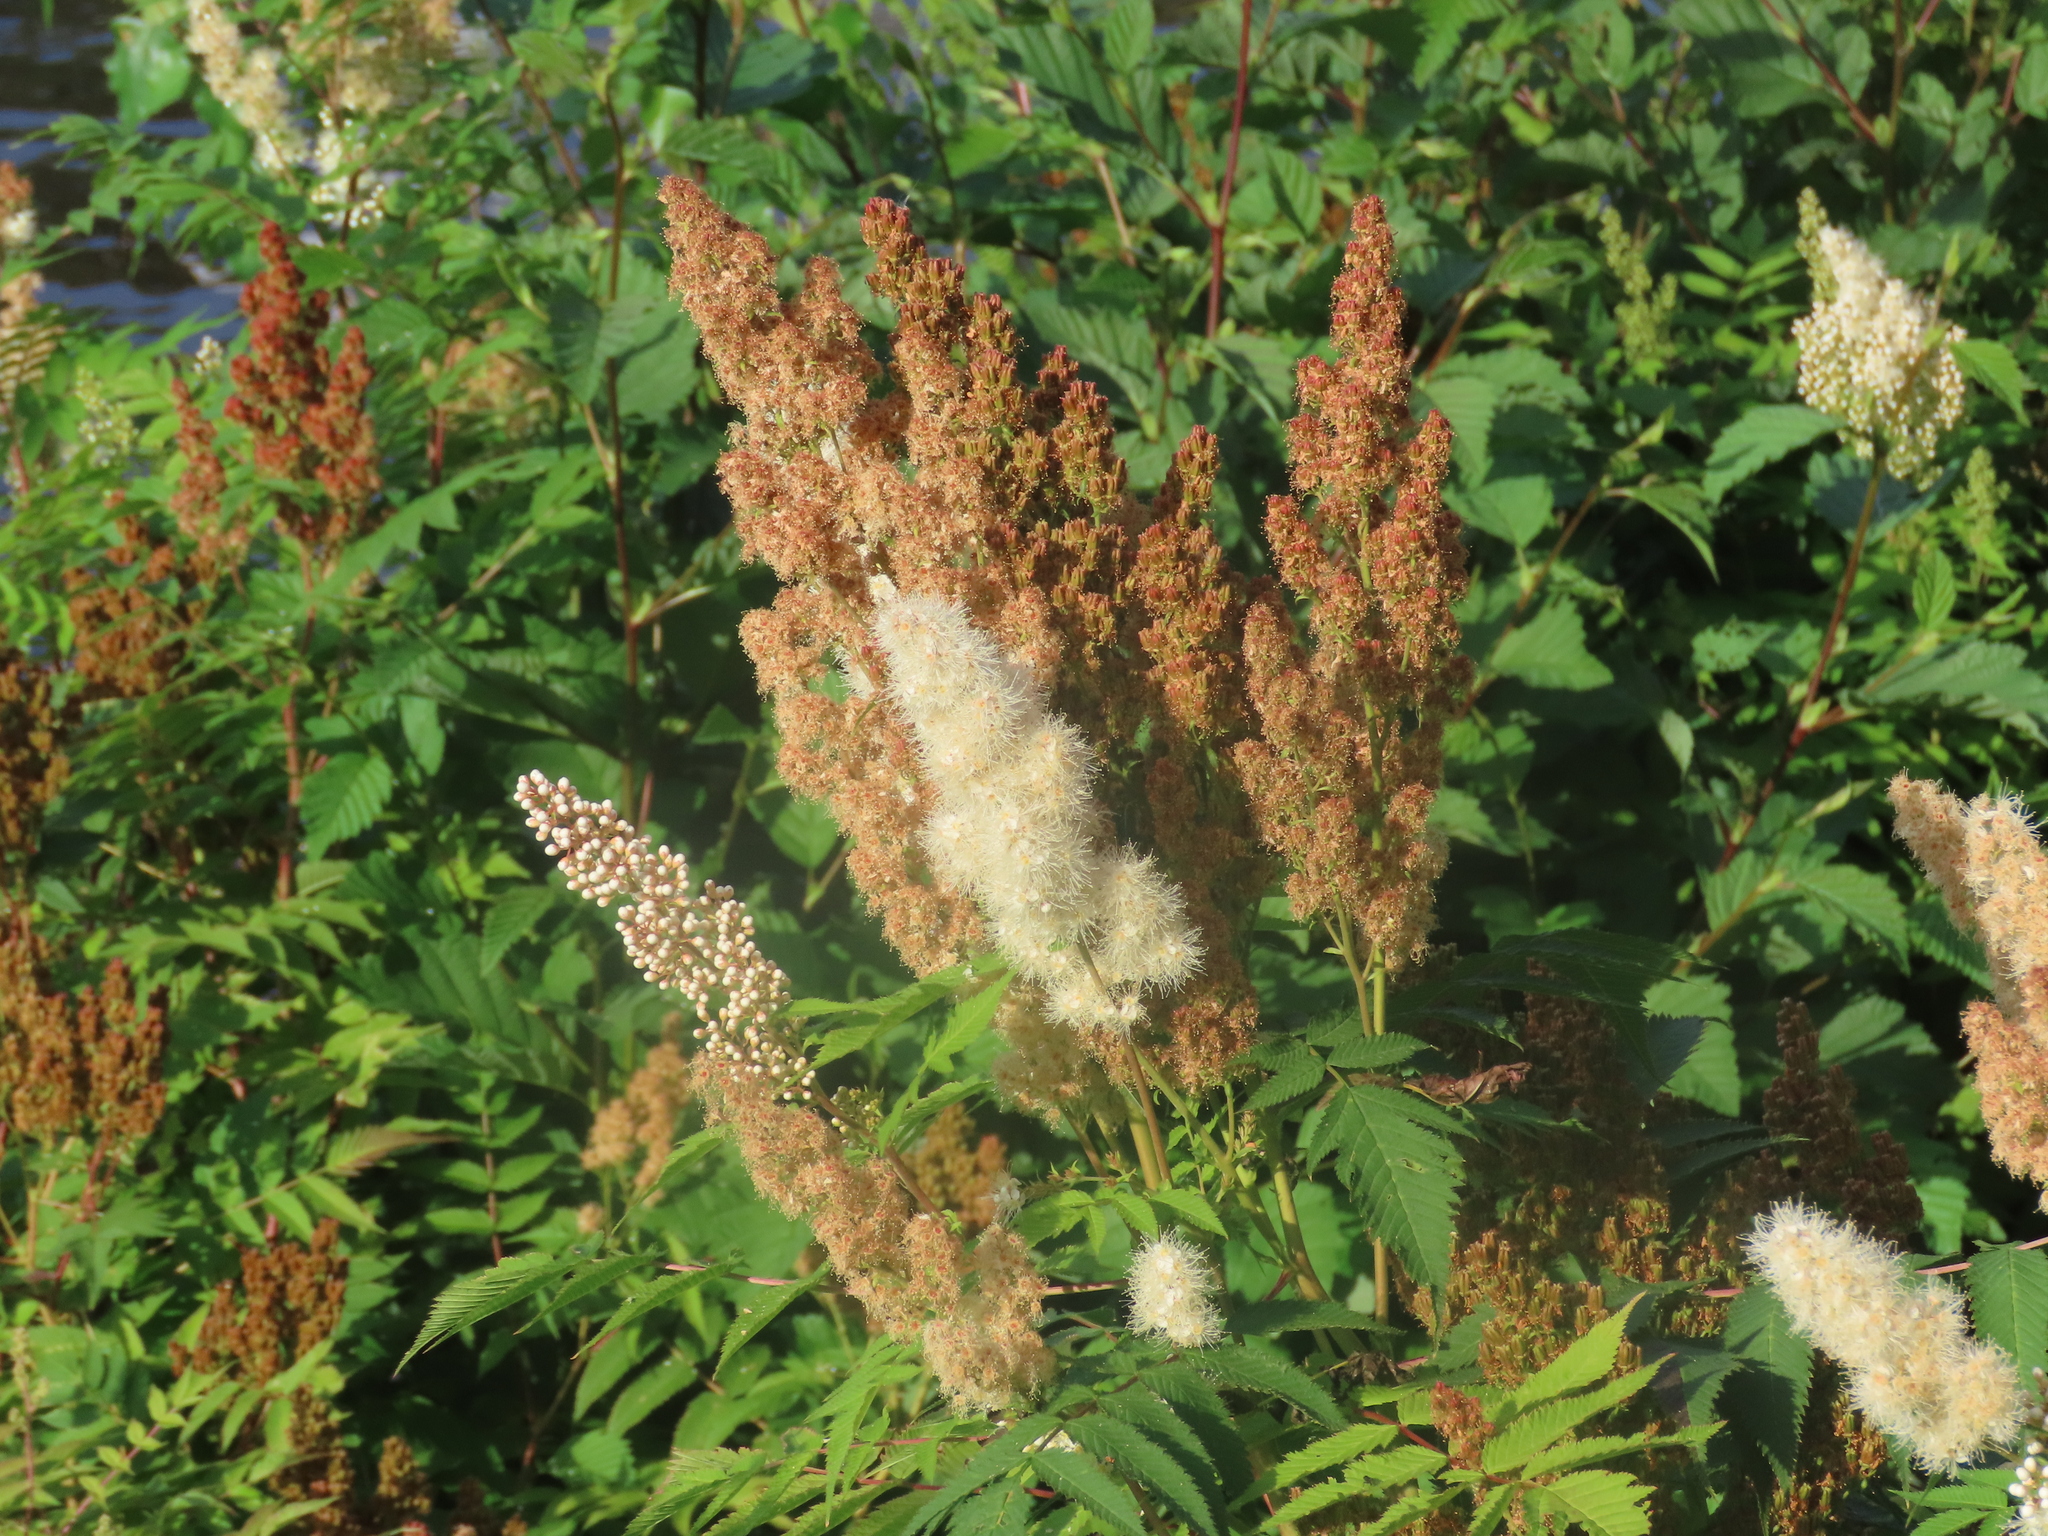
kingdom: Plantae
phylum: Tracheophyta
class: Magnoliopsida
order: Rosales
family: Rosaceae
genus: Sorbaria
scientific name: Sorbaria sorbifolia
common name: False spiraea
